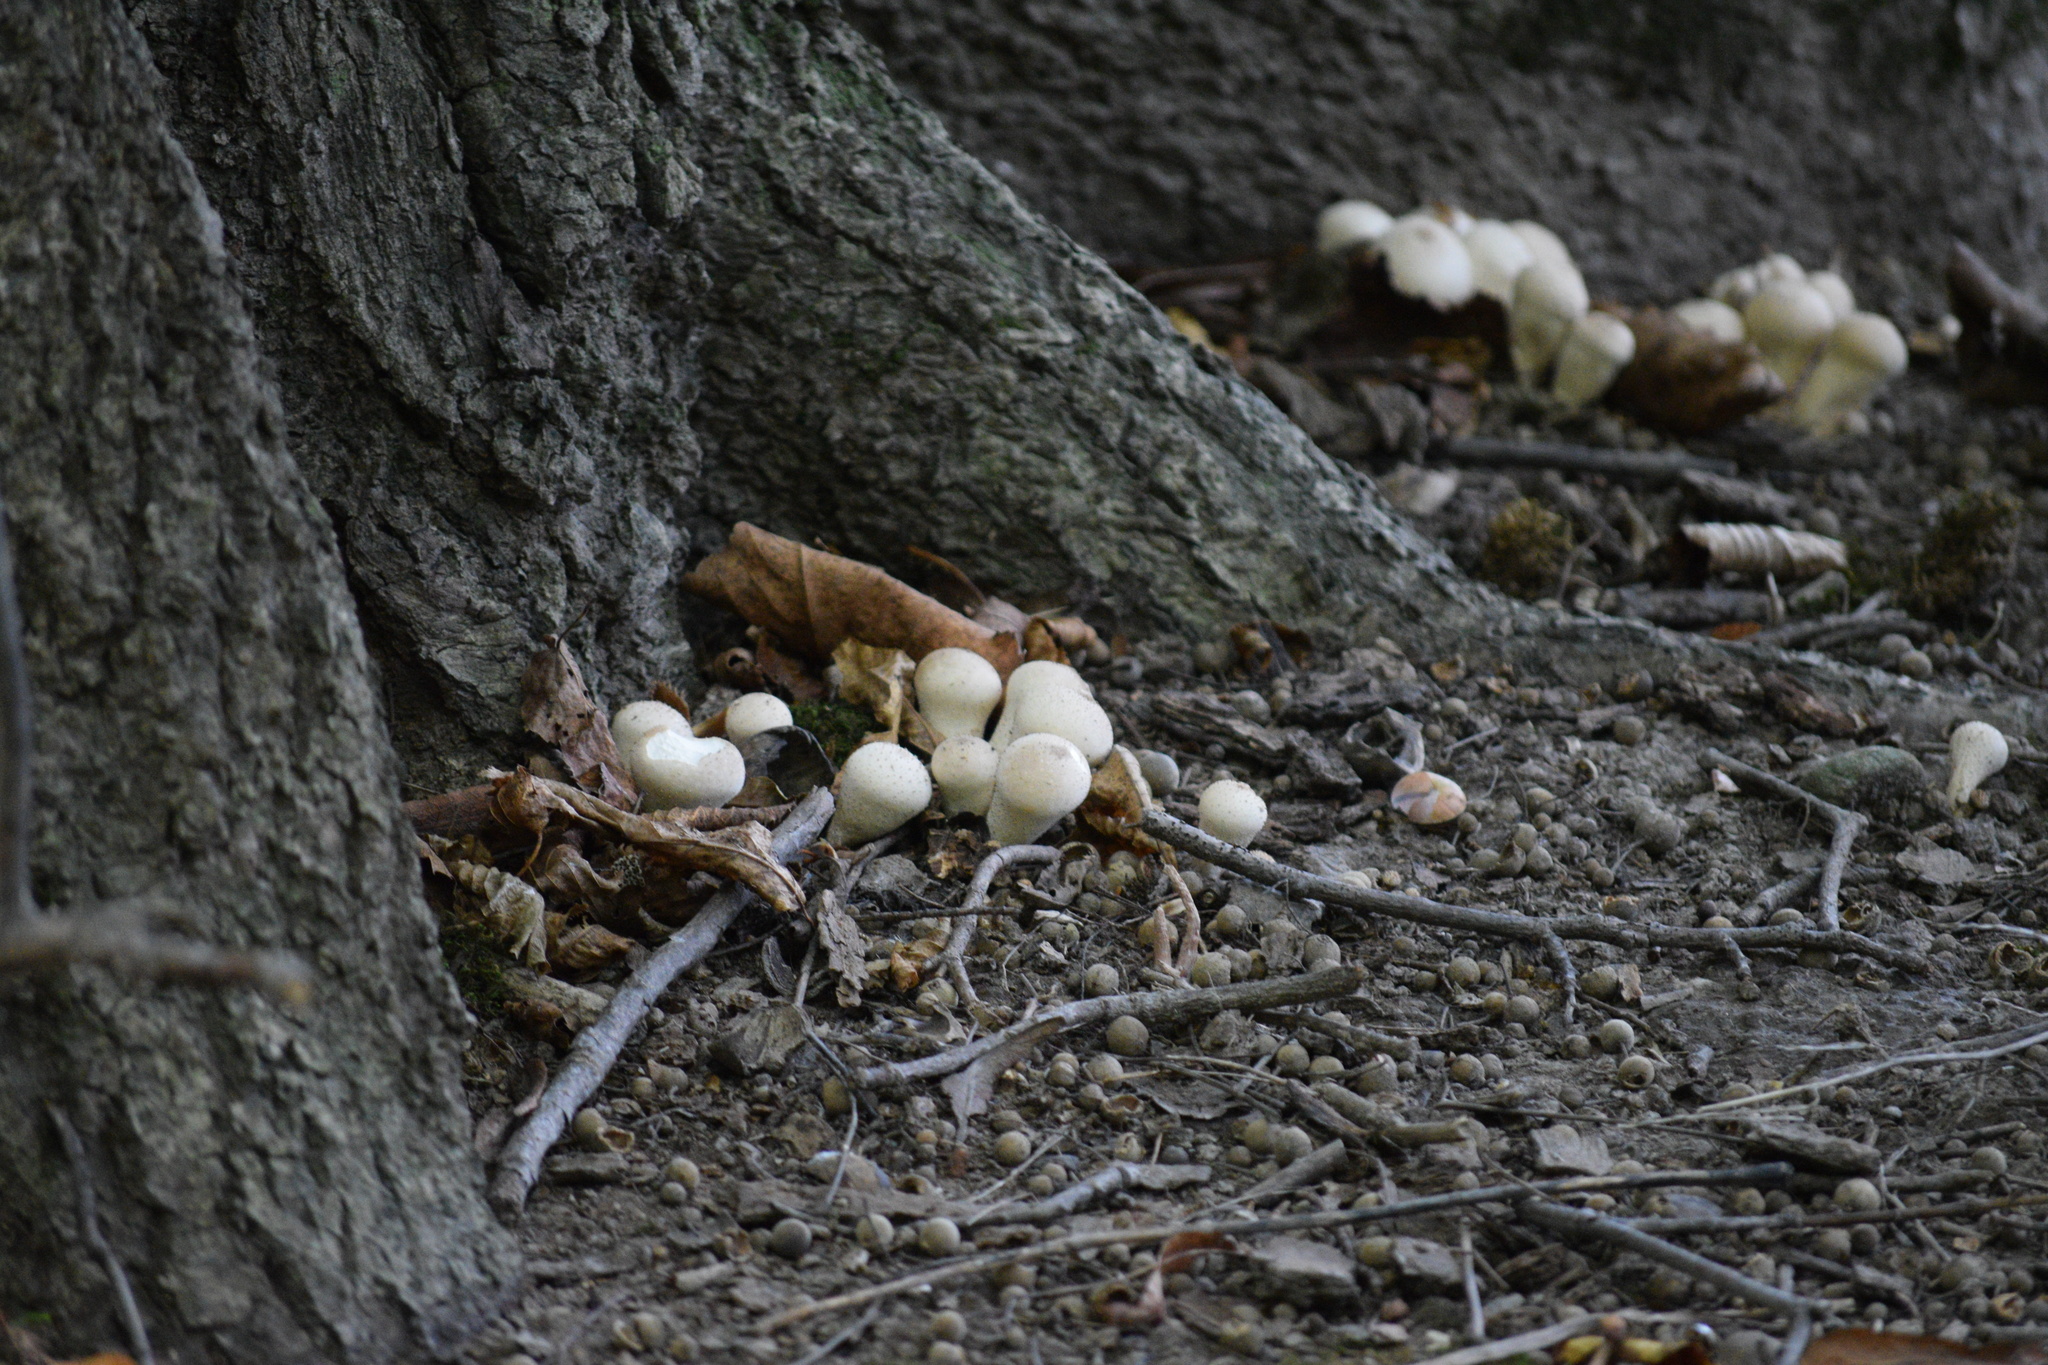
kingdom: Fungi
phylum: Basidiomycota
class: Agaricomycetes
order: Agaricales
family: Lycoperdaceae
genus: Lycoperdon
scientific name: Lycoperdon perlatum
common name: Common puffball
